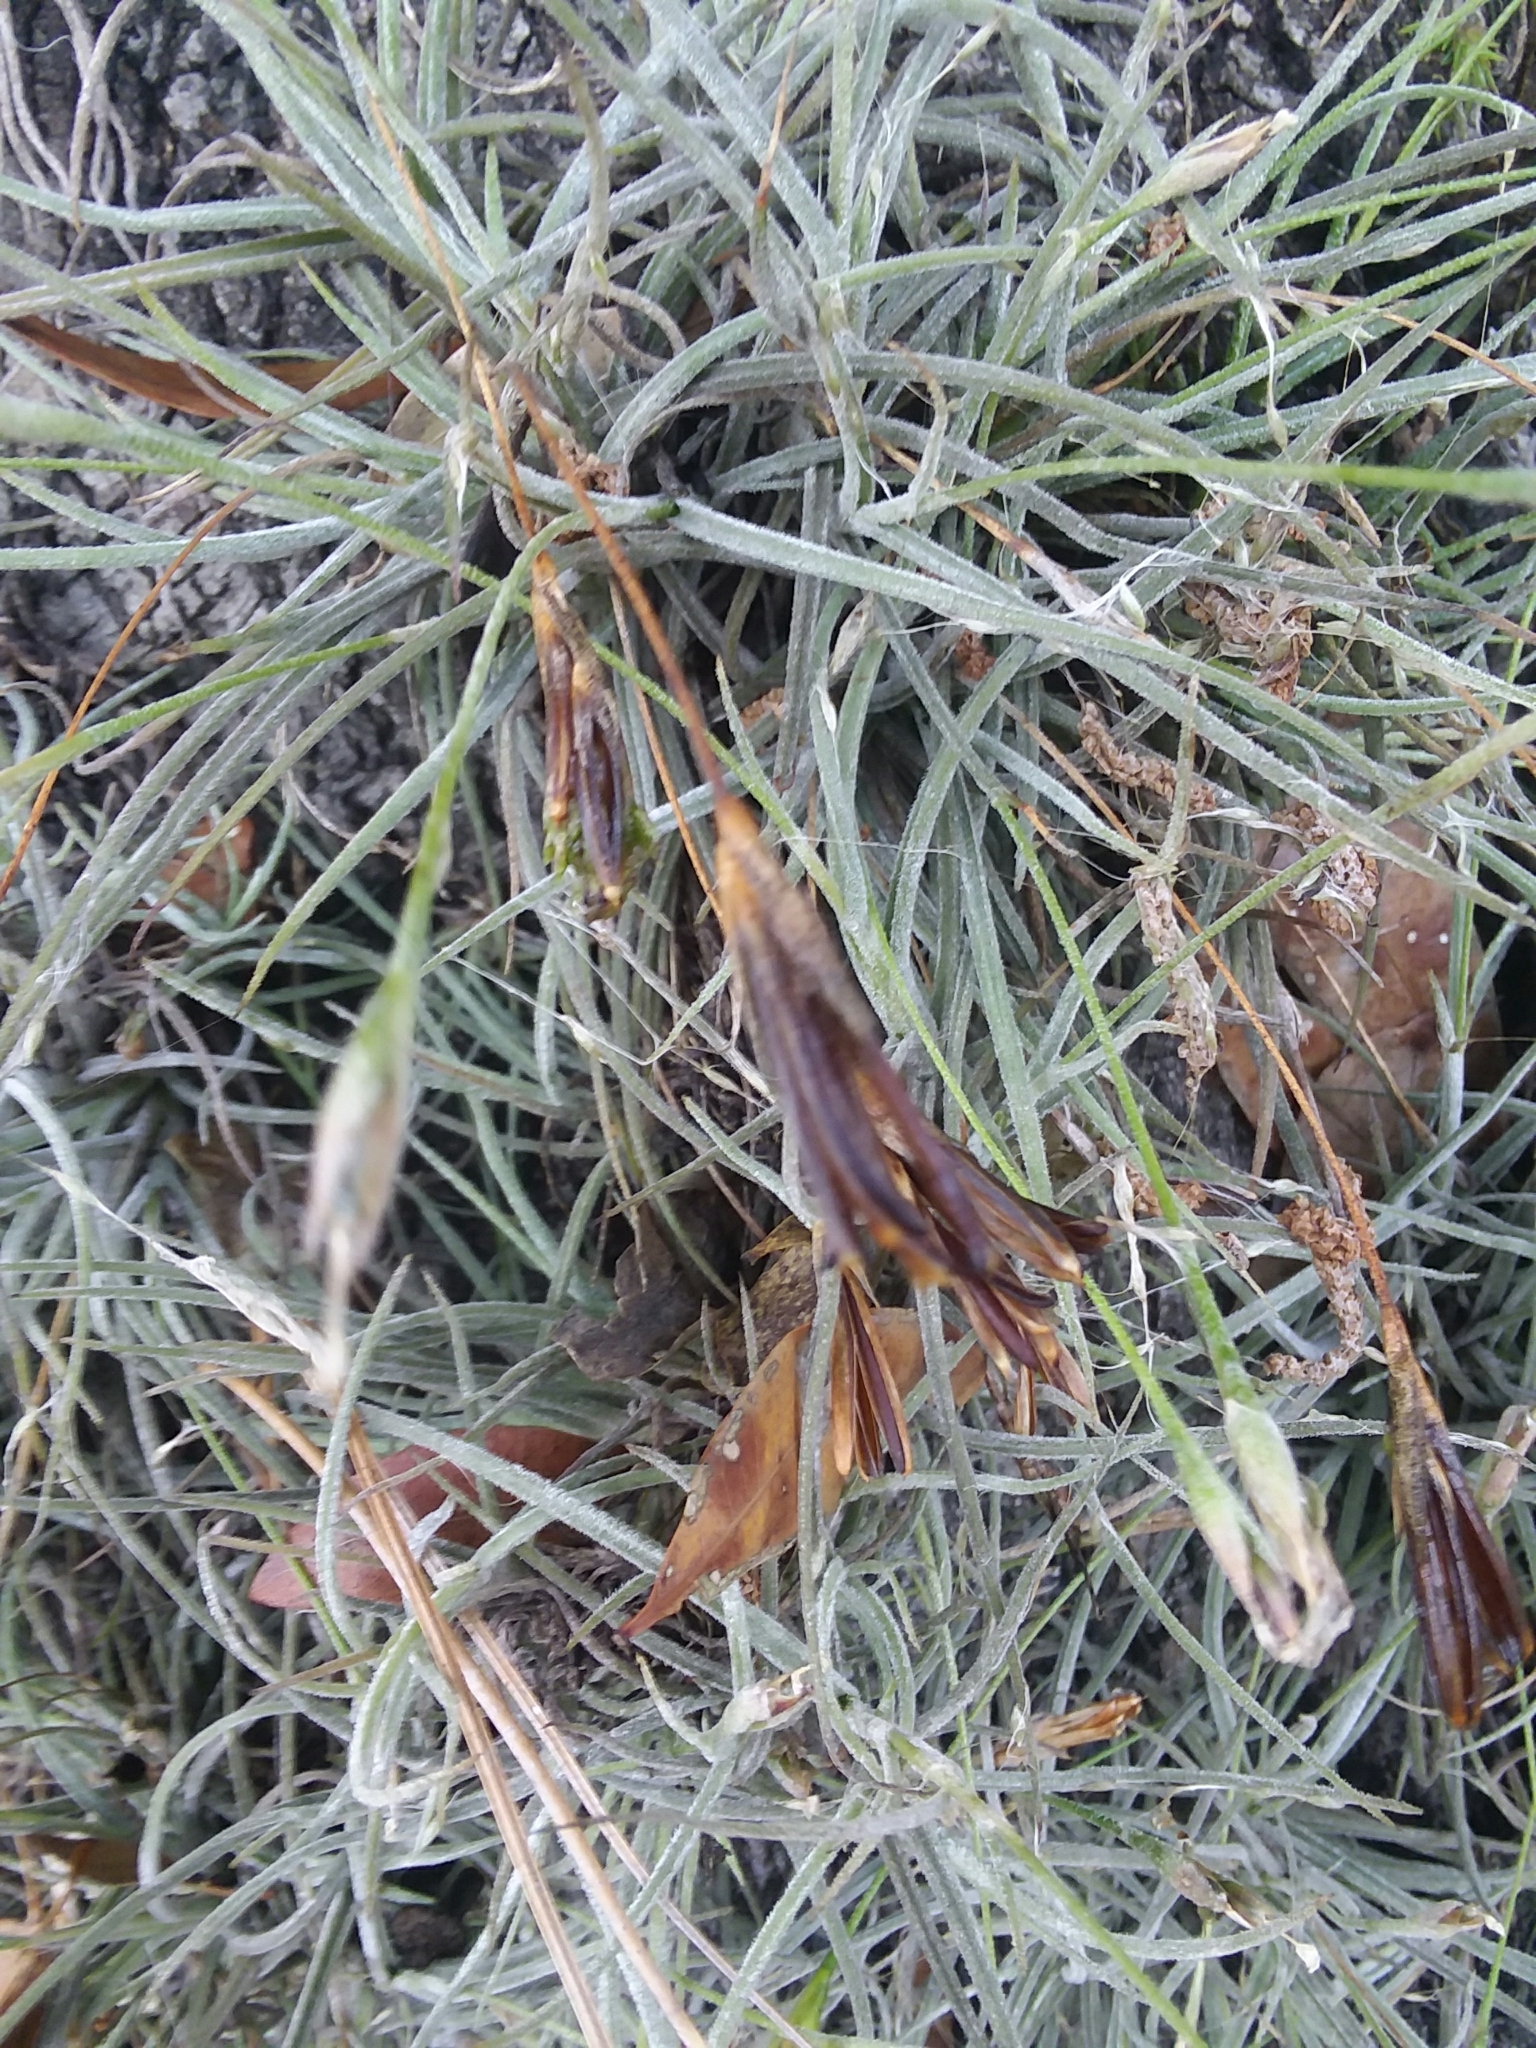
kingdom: Plantae
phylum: Tracheophyta
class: Liliopsida
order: Poales
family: Bromeliaceae
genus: Tillandsia
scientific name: Tillandsia recurvata
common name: Small ballmoss
